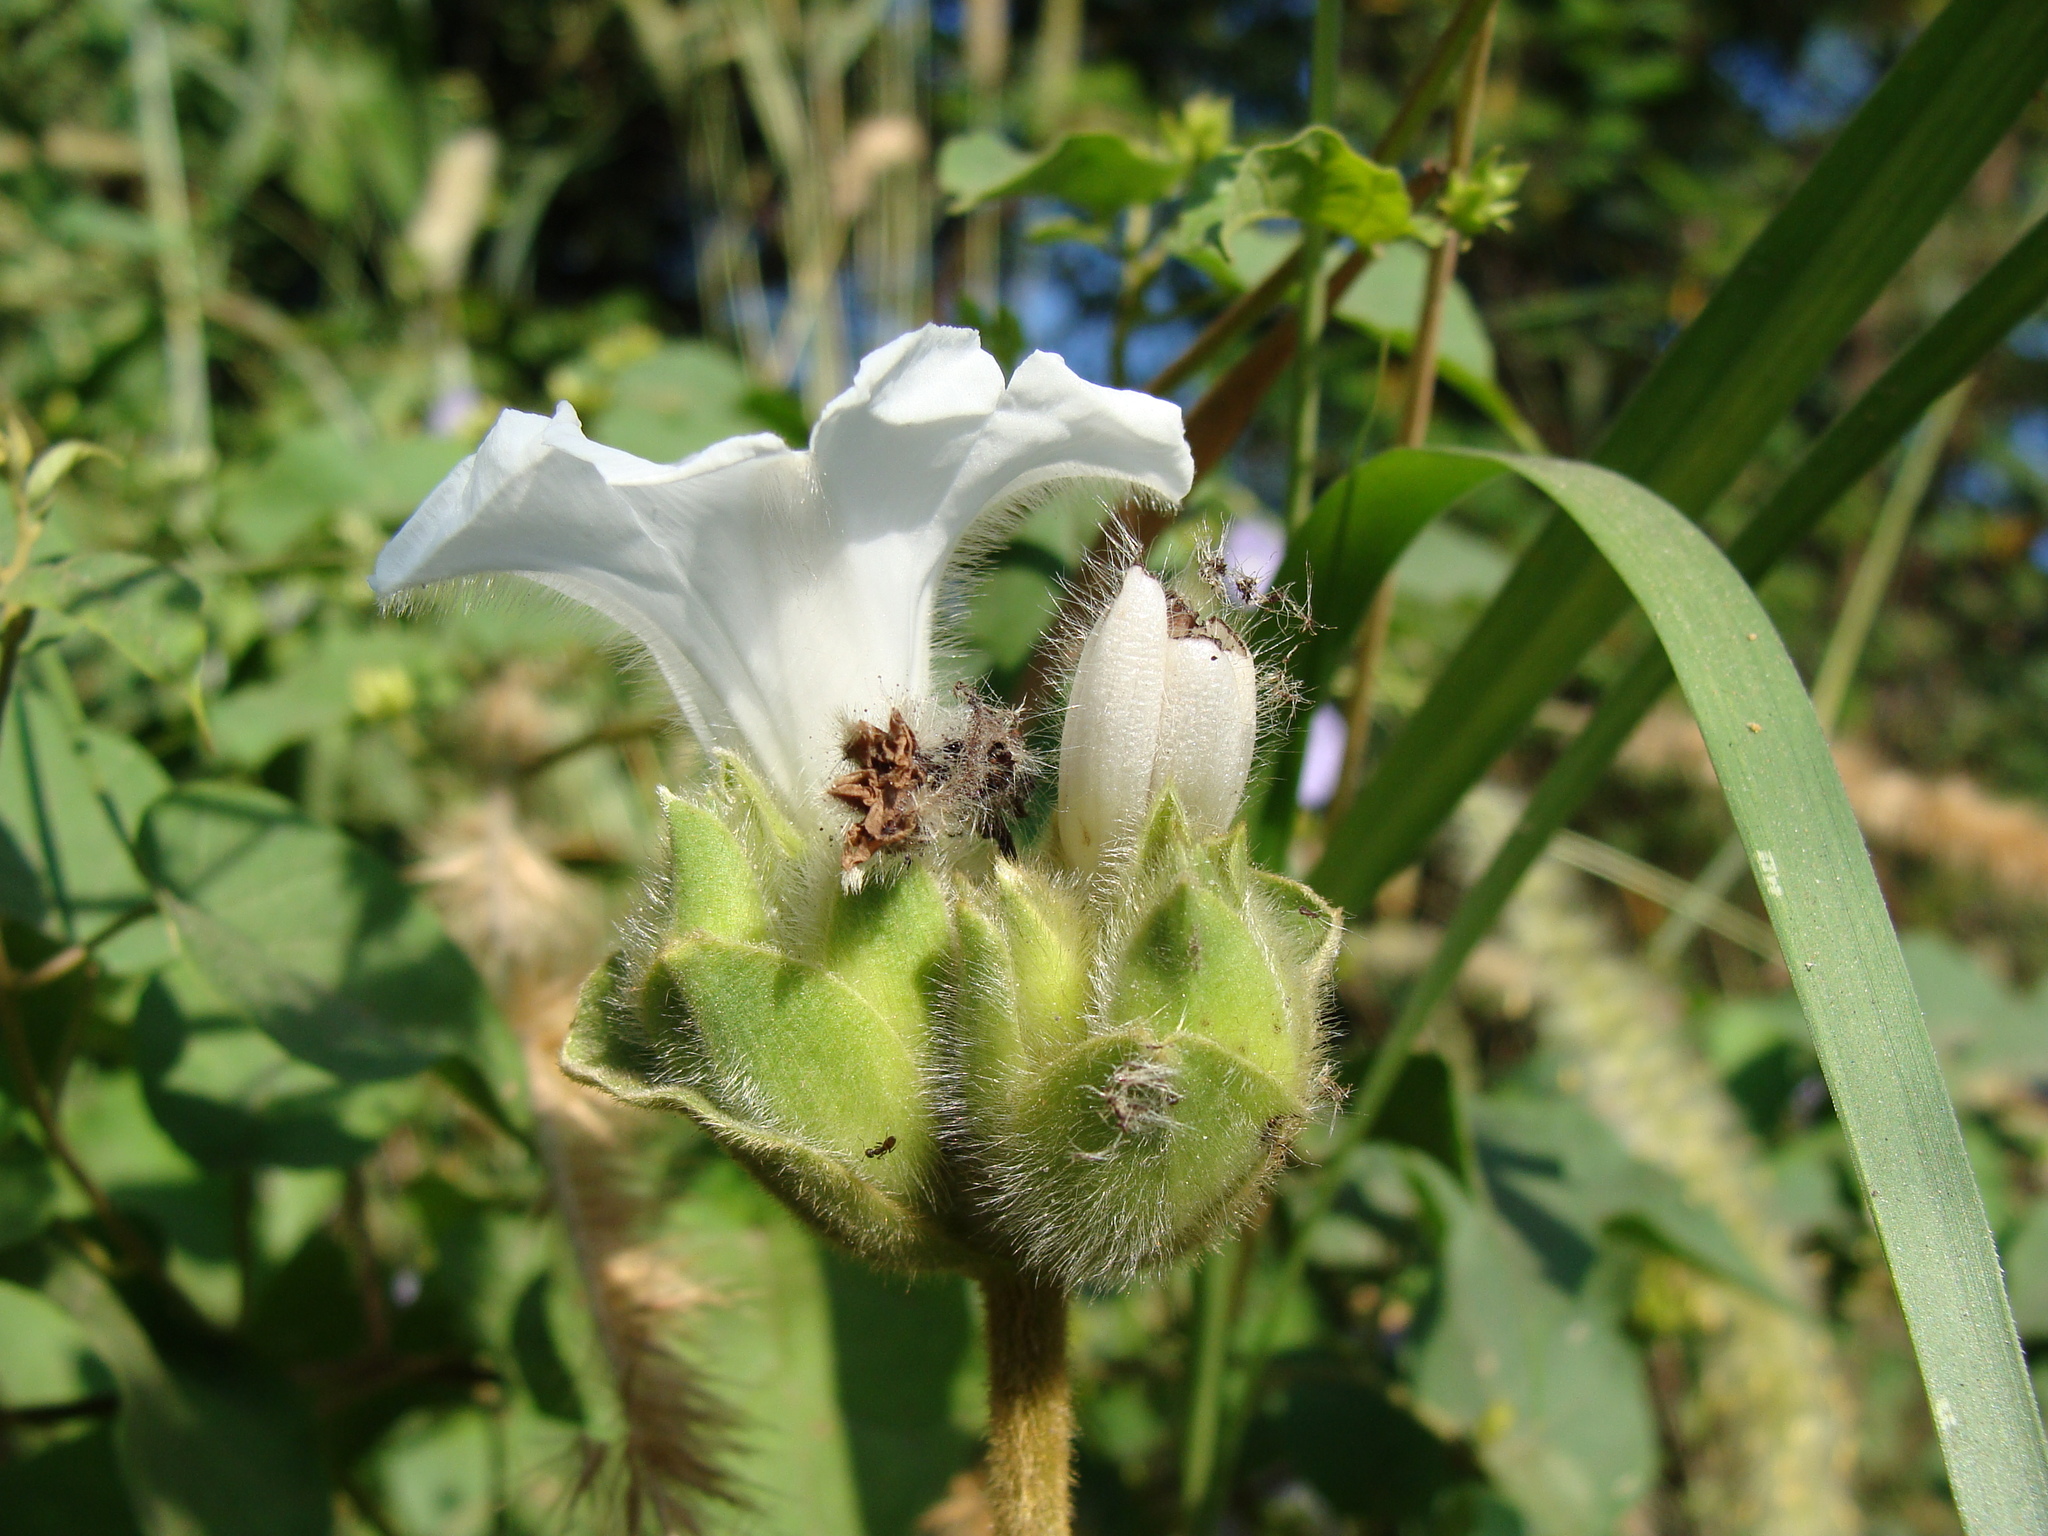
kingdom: Plantae
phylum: Tracheophyta
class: Magnoliopsida
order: Solanales
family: Convolvulaceae
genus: Odonellia
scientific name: Odonellia hirtiflora
